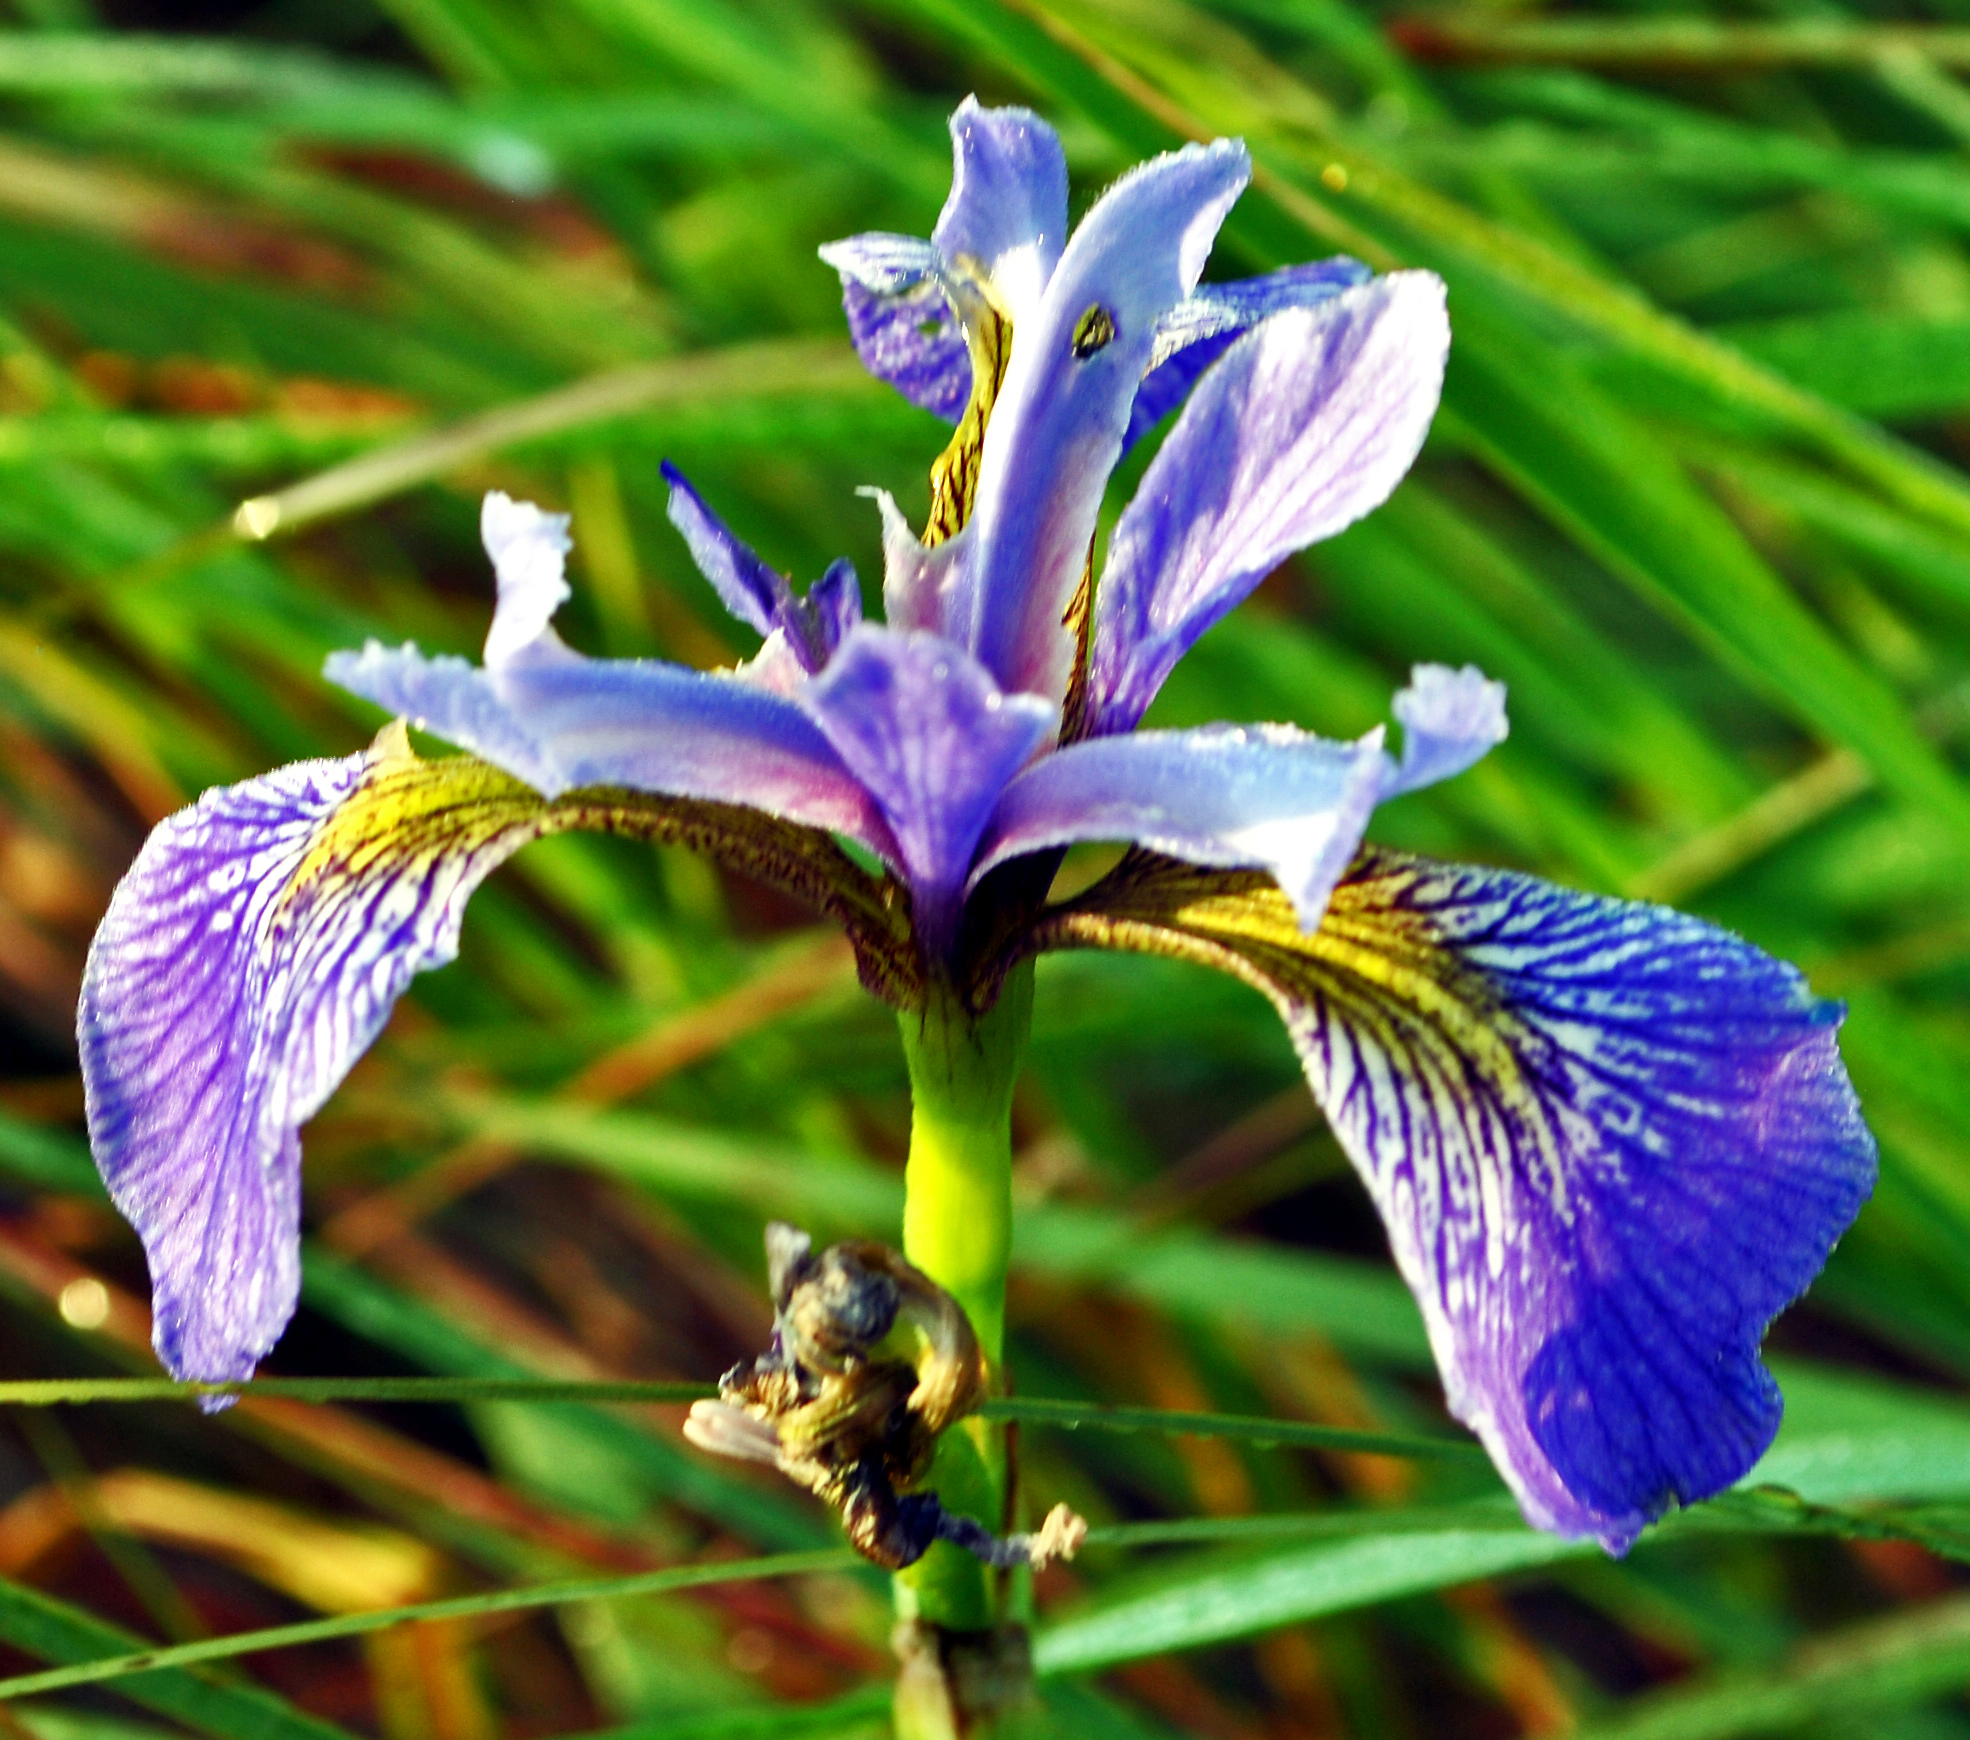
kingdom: Plantae
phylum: Tracheophyta
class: Liliopsida
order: Asparagales
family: Iridaceae
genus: Iris
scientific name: Iris versicolor
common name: Purple iris
